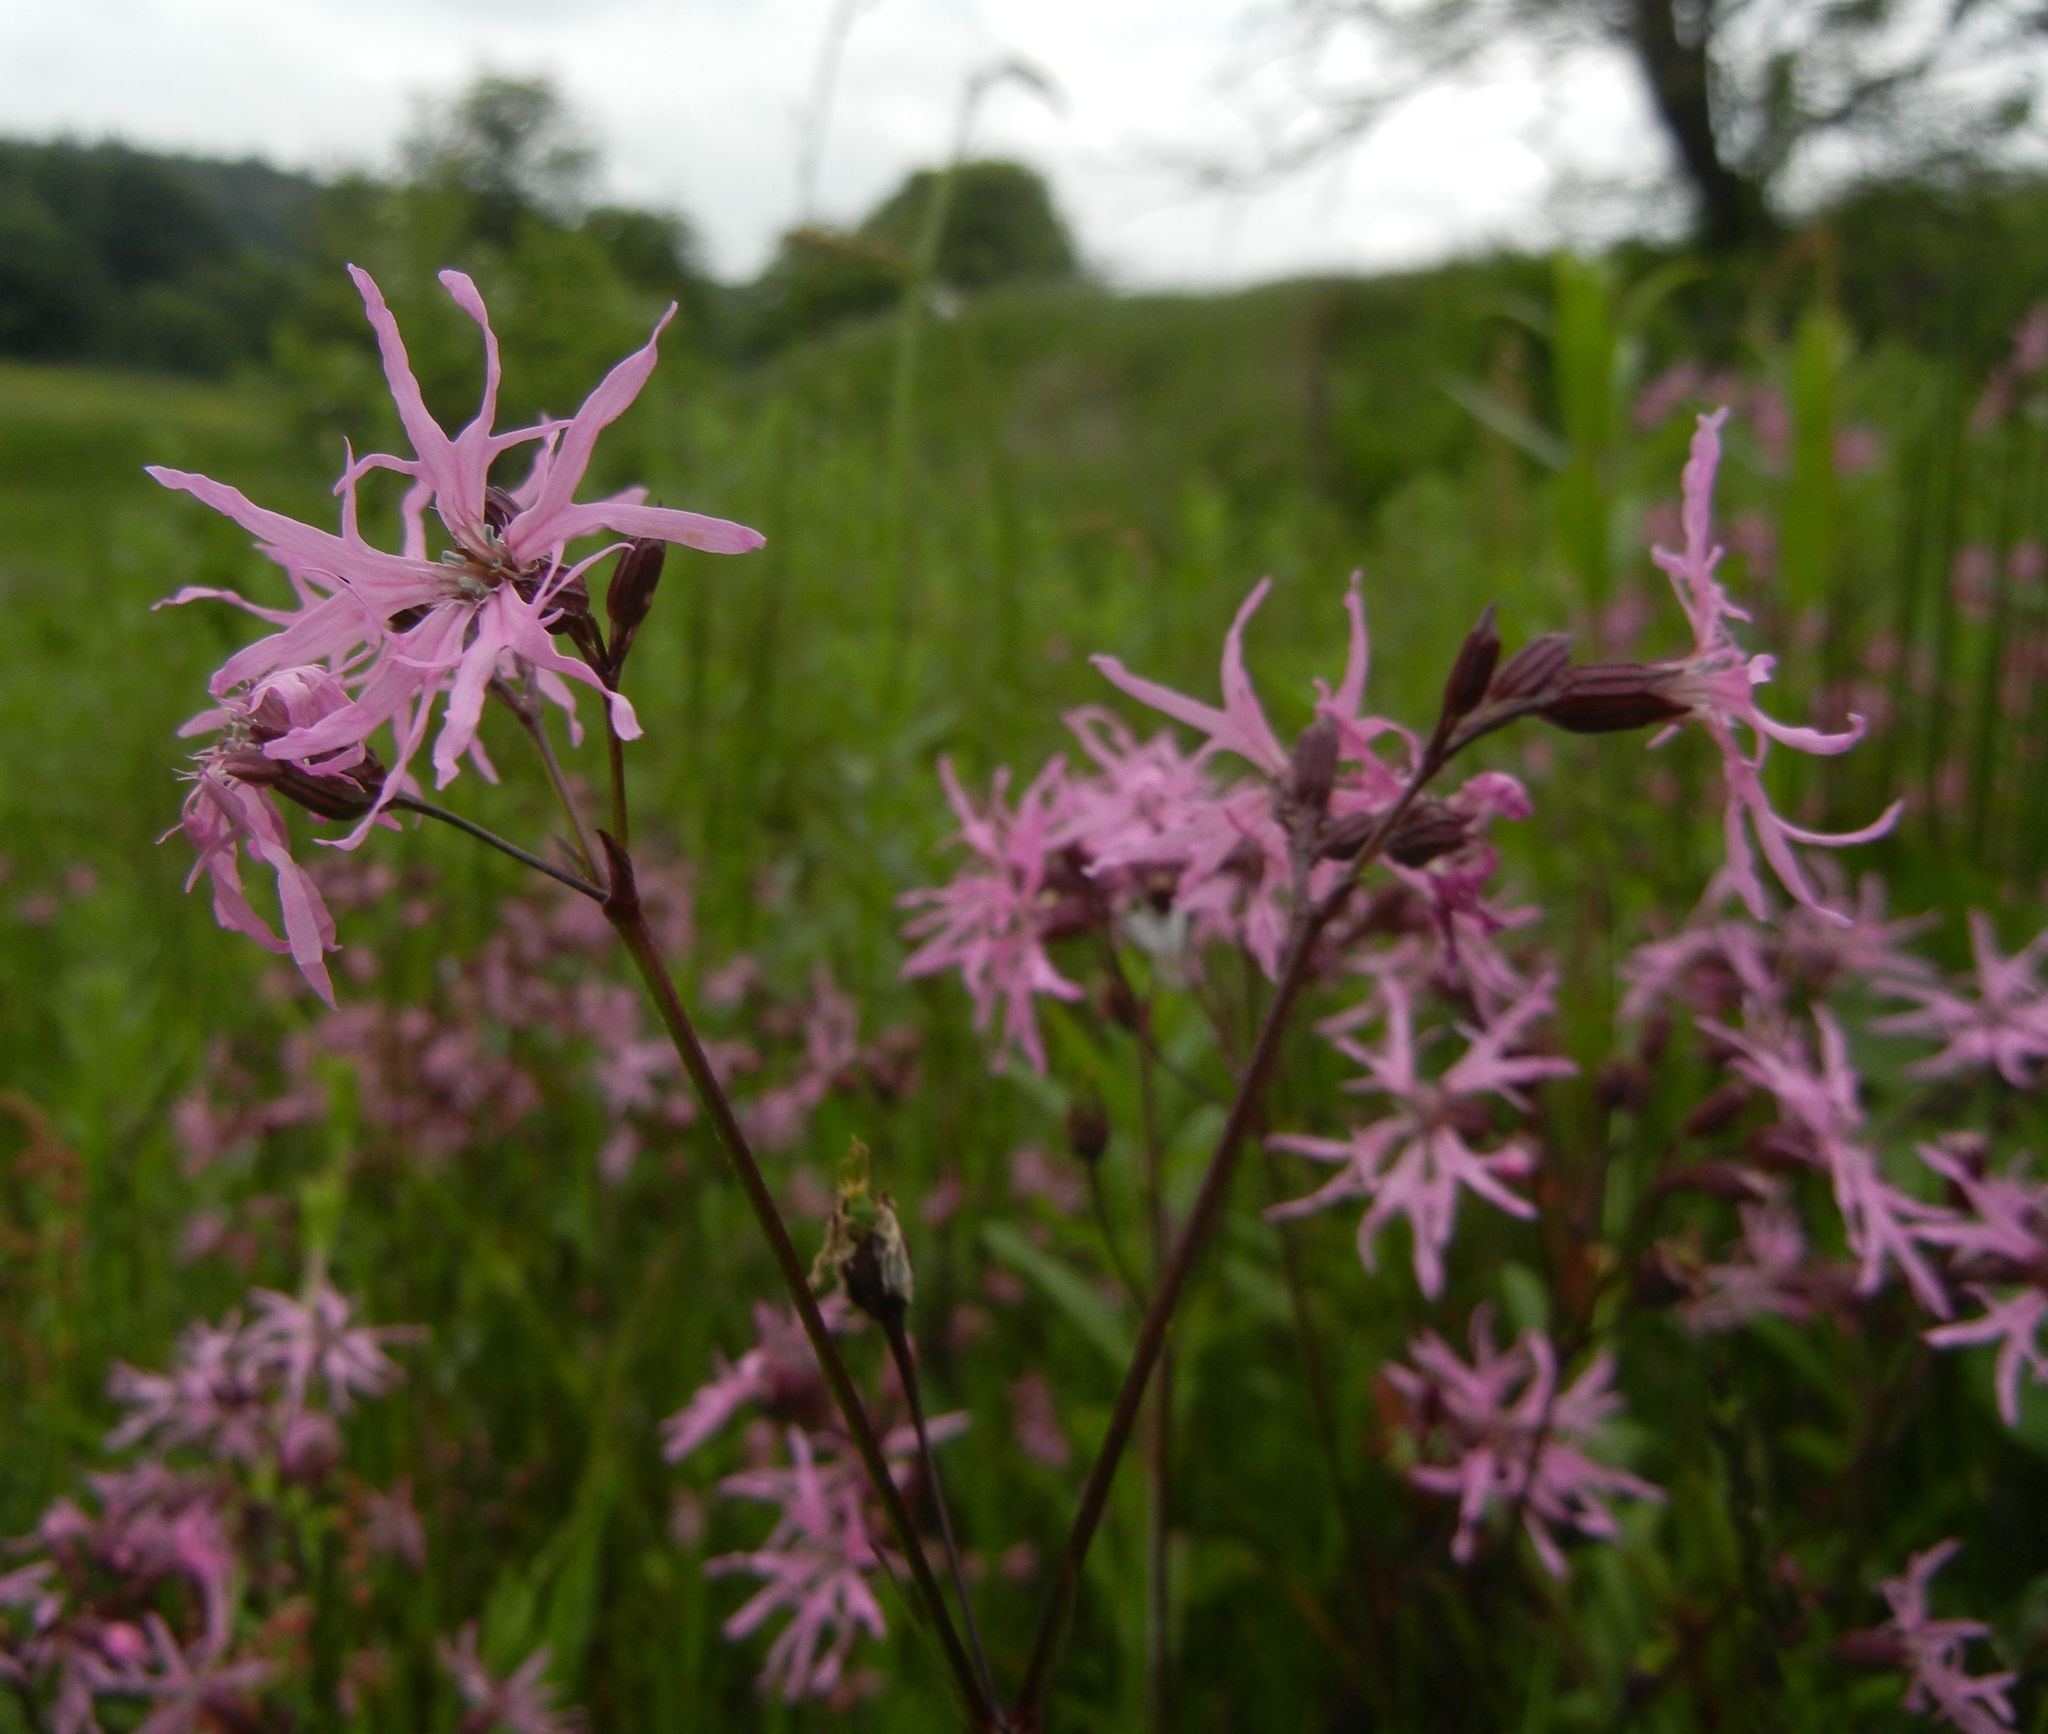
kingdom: Plantae
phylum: Tracheophyta
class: Magnoliopsida
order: Caryophyllales
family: Caryophyllaceae
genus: Silene
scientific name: Silene flos-cuculi
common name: Ragged-robin
